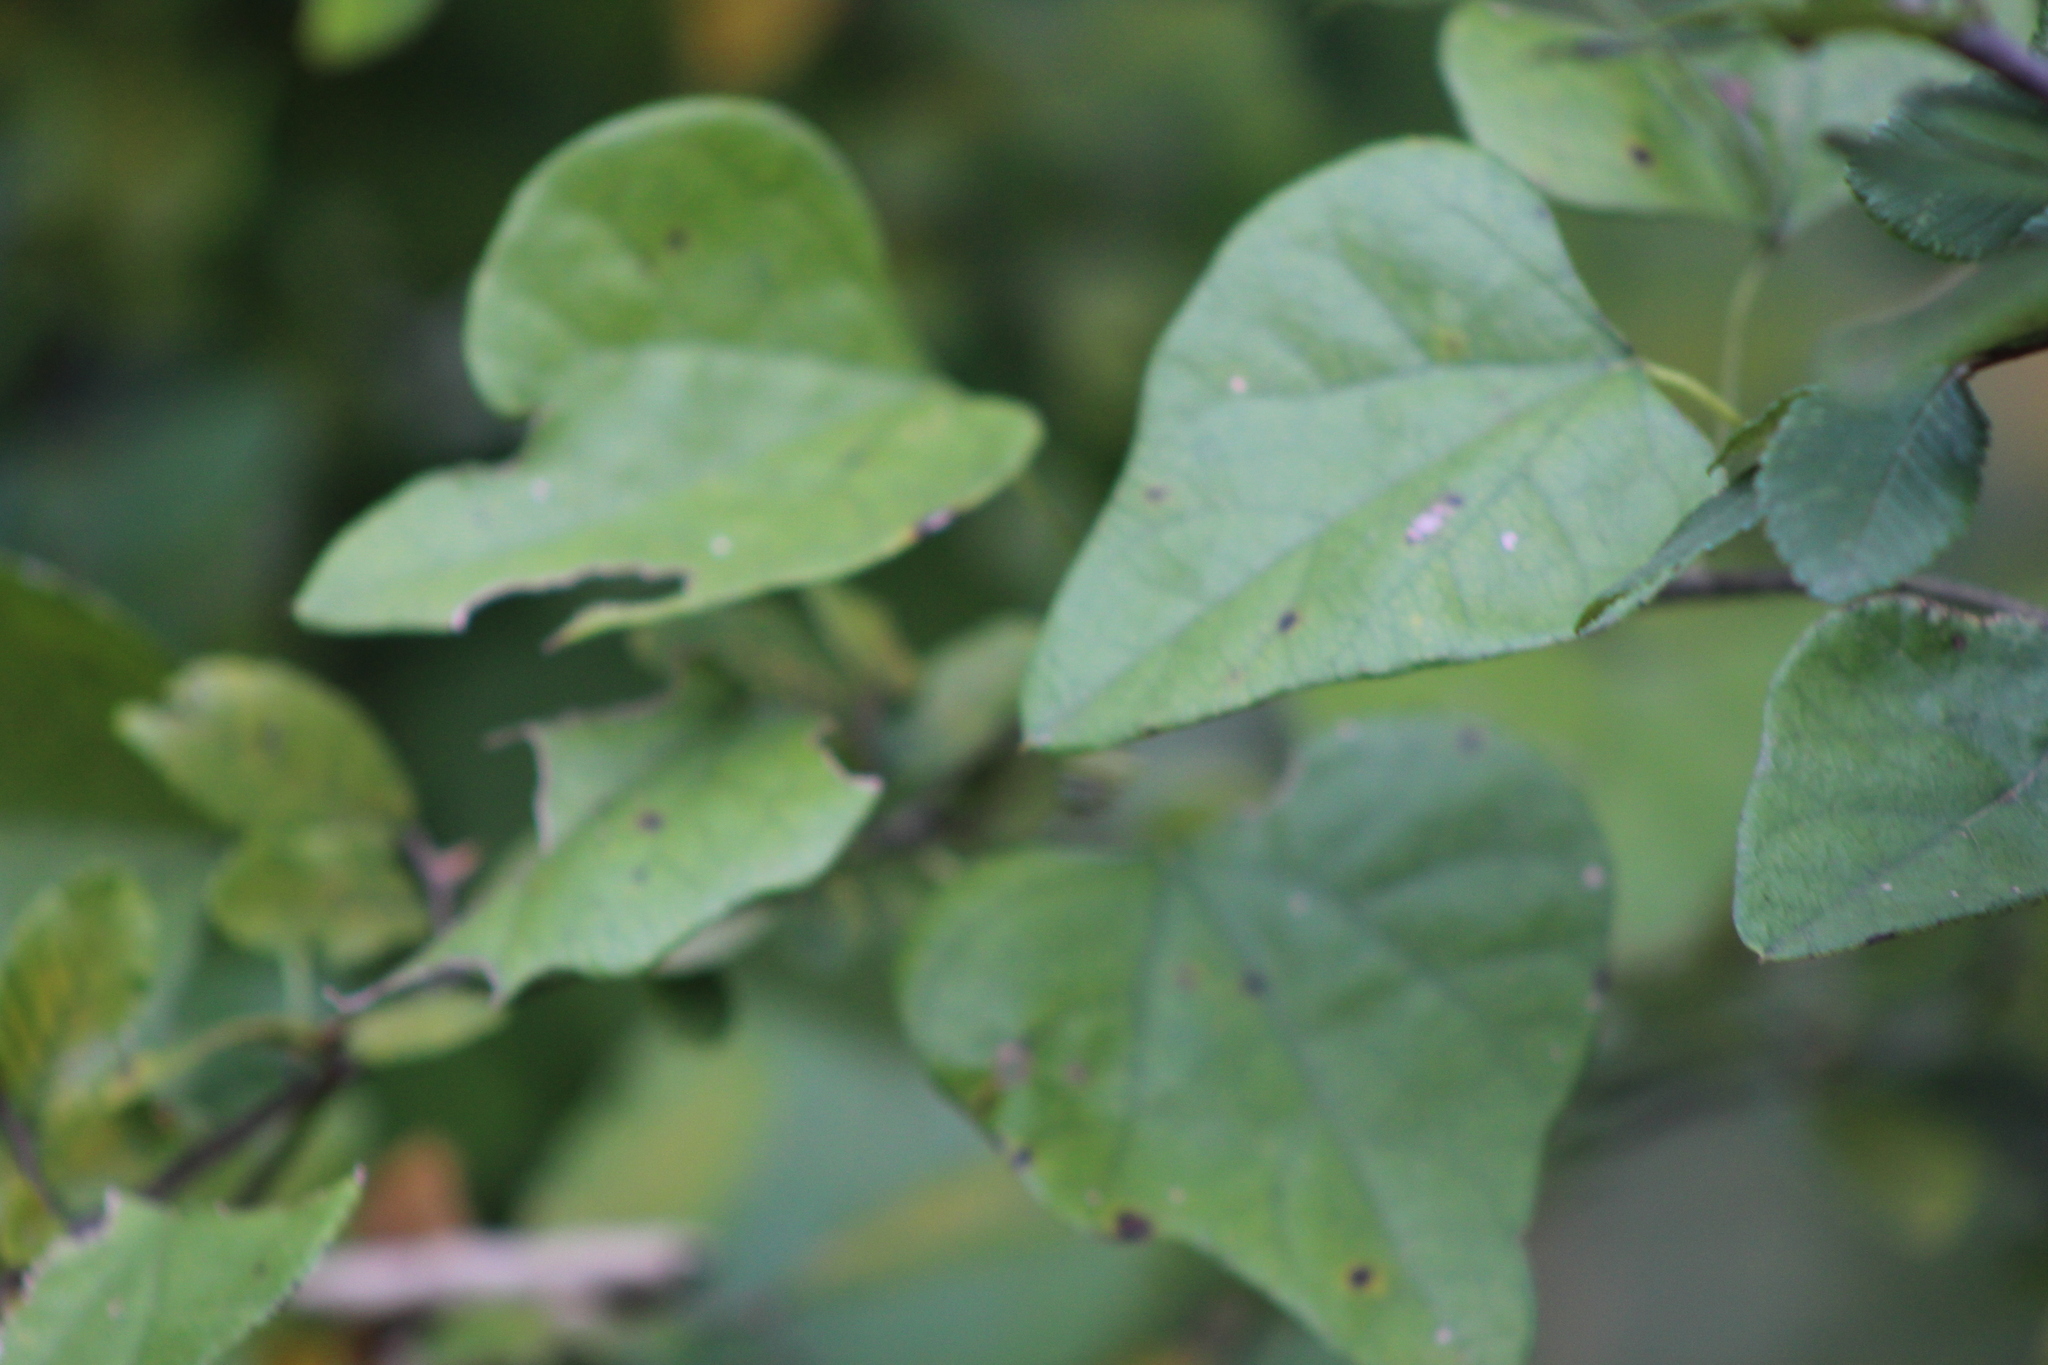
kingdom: Plantae
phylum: Tracheophyta
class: Magnoliopsida
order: Ranunculales
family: Menispermaceae
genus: Cocculus
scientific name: Cocculus carolinus
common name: Carolina moonseed
